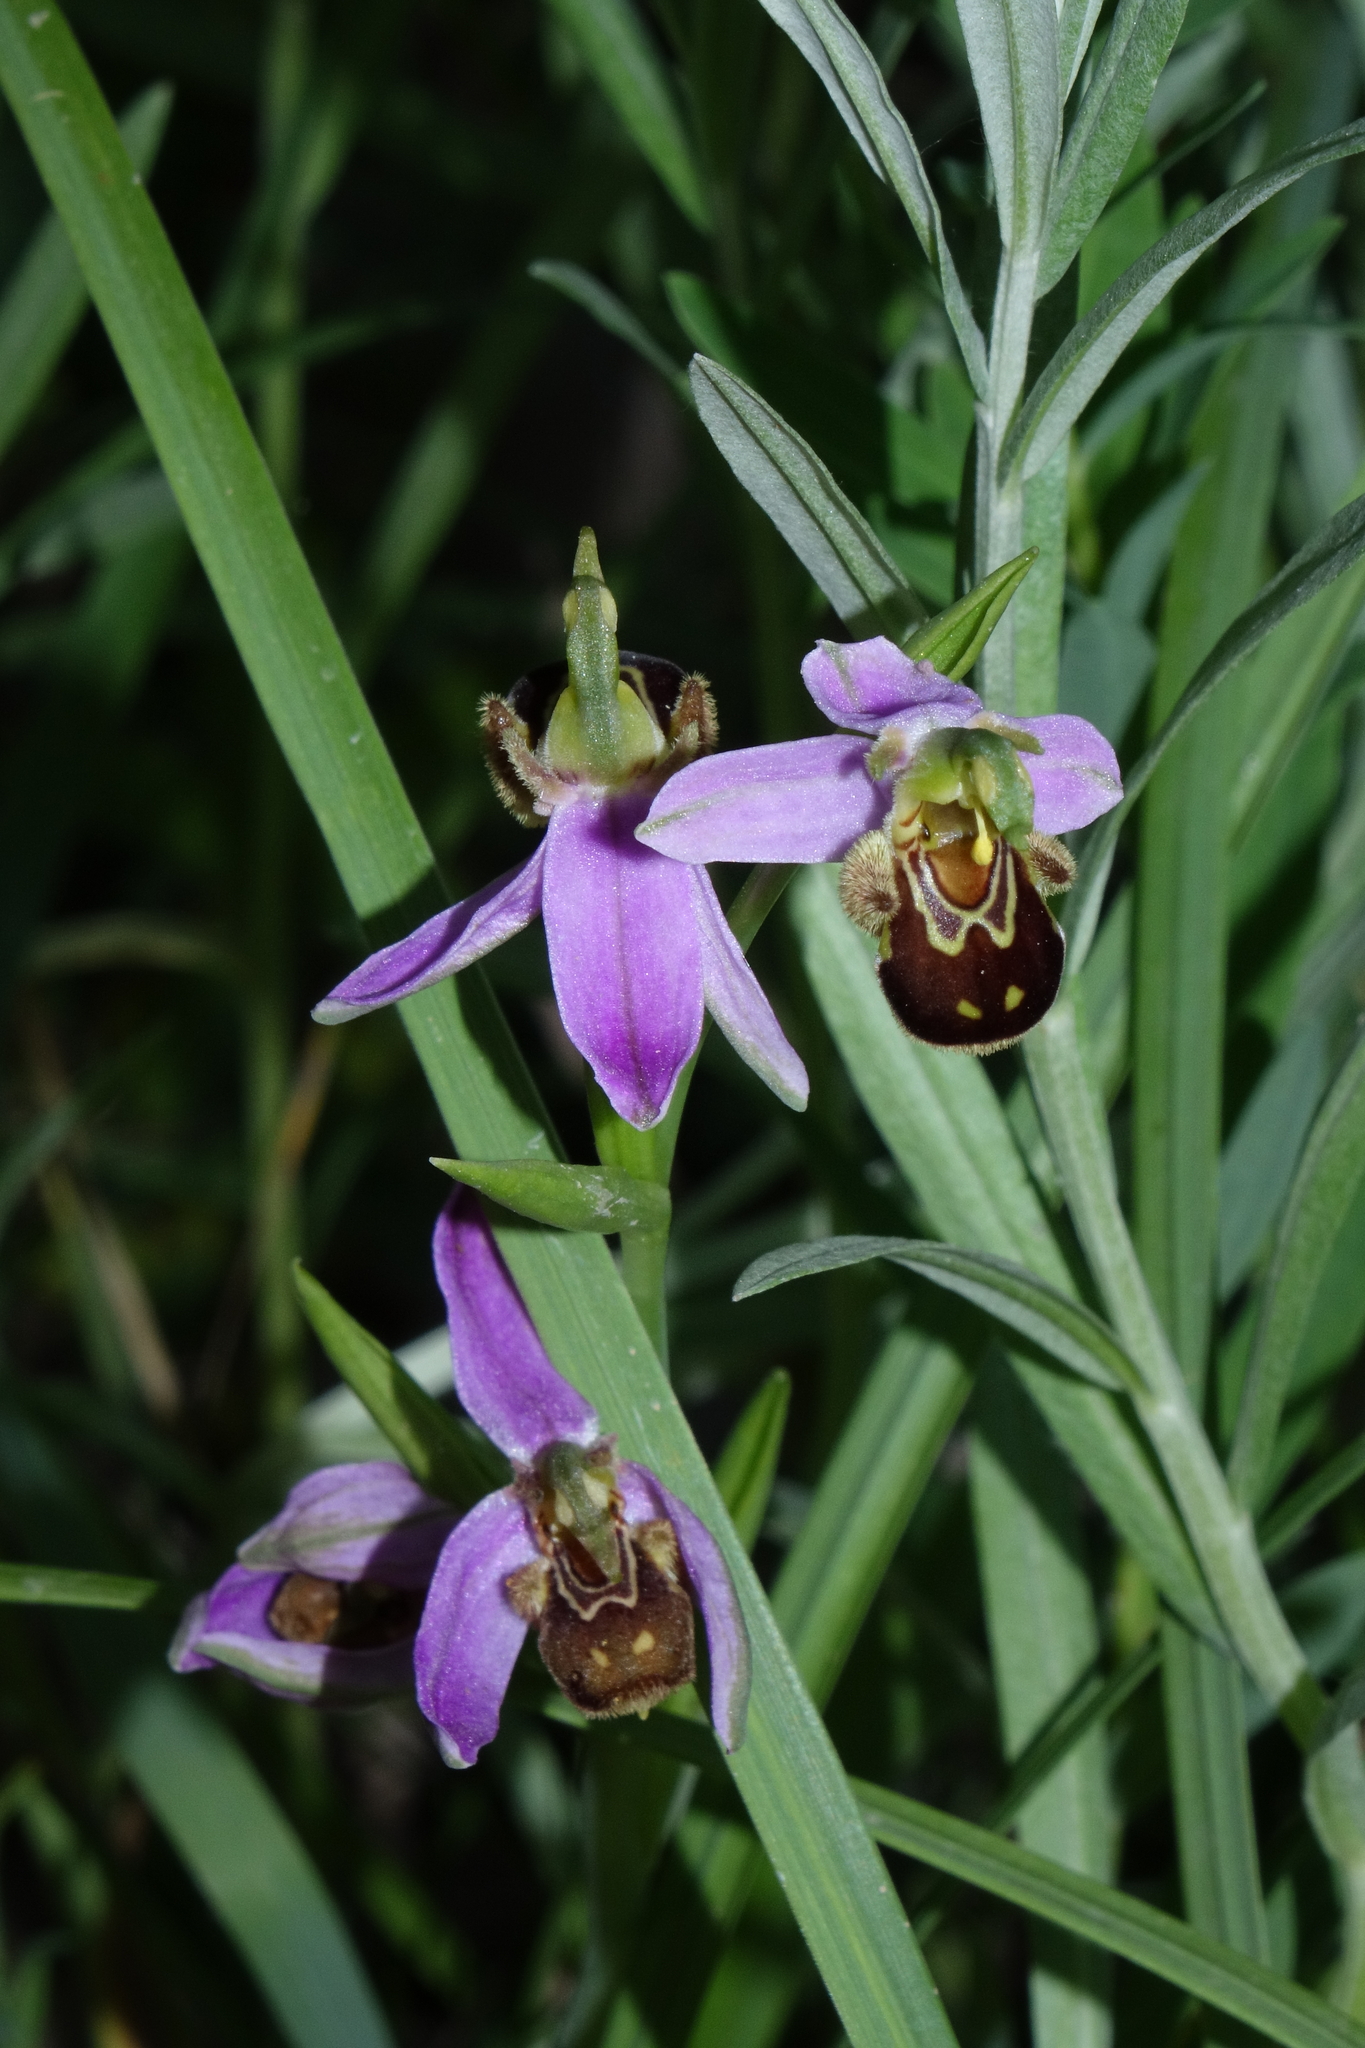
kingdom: Plantae
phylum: Tracheophyta
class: Liliopsida
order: Asparagales
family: Orchidaceae
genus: Ophrys
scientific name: Ophrys apifera
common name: Bee orchid
